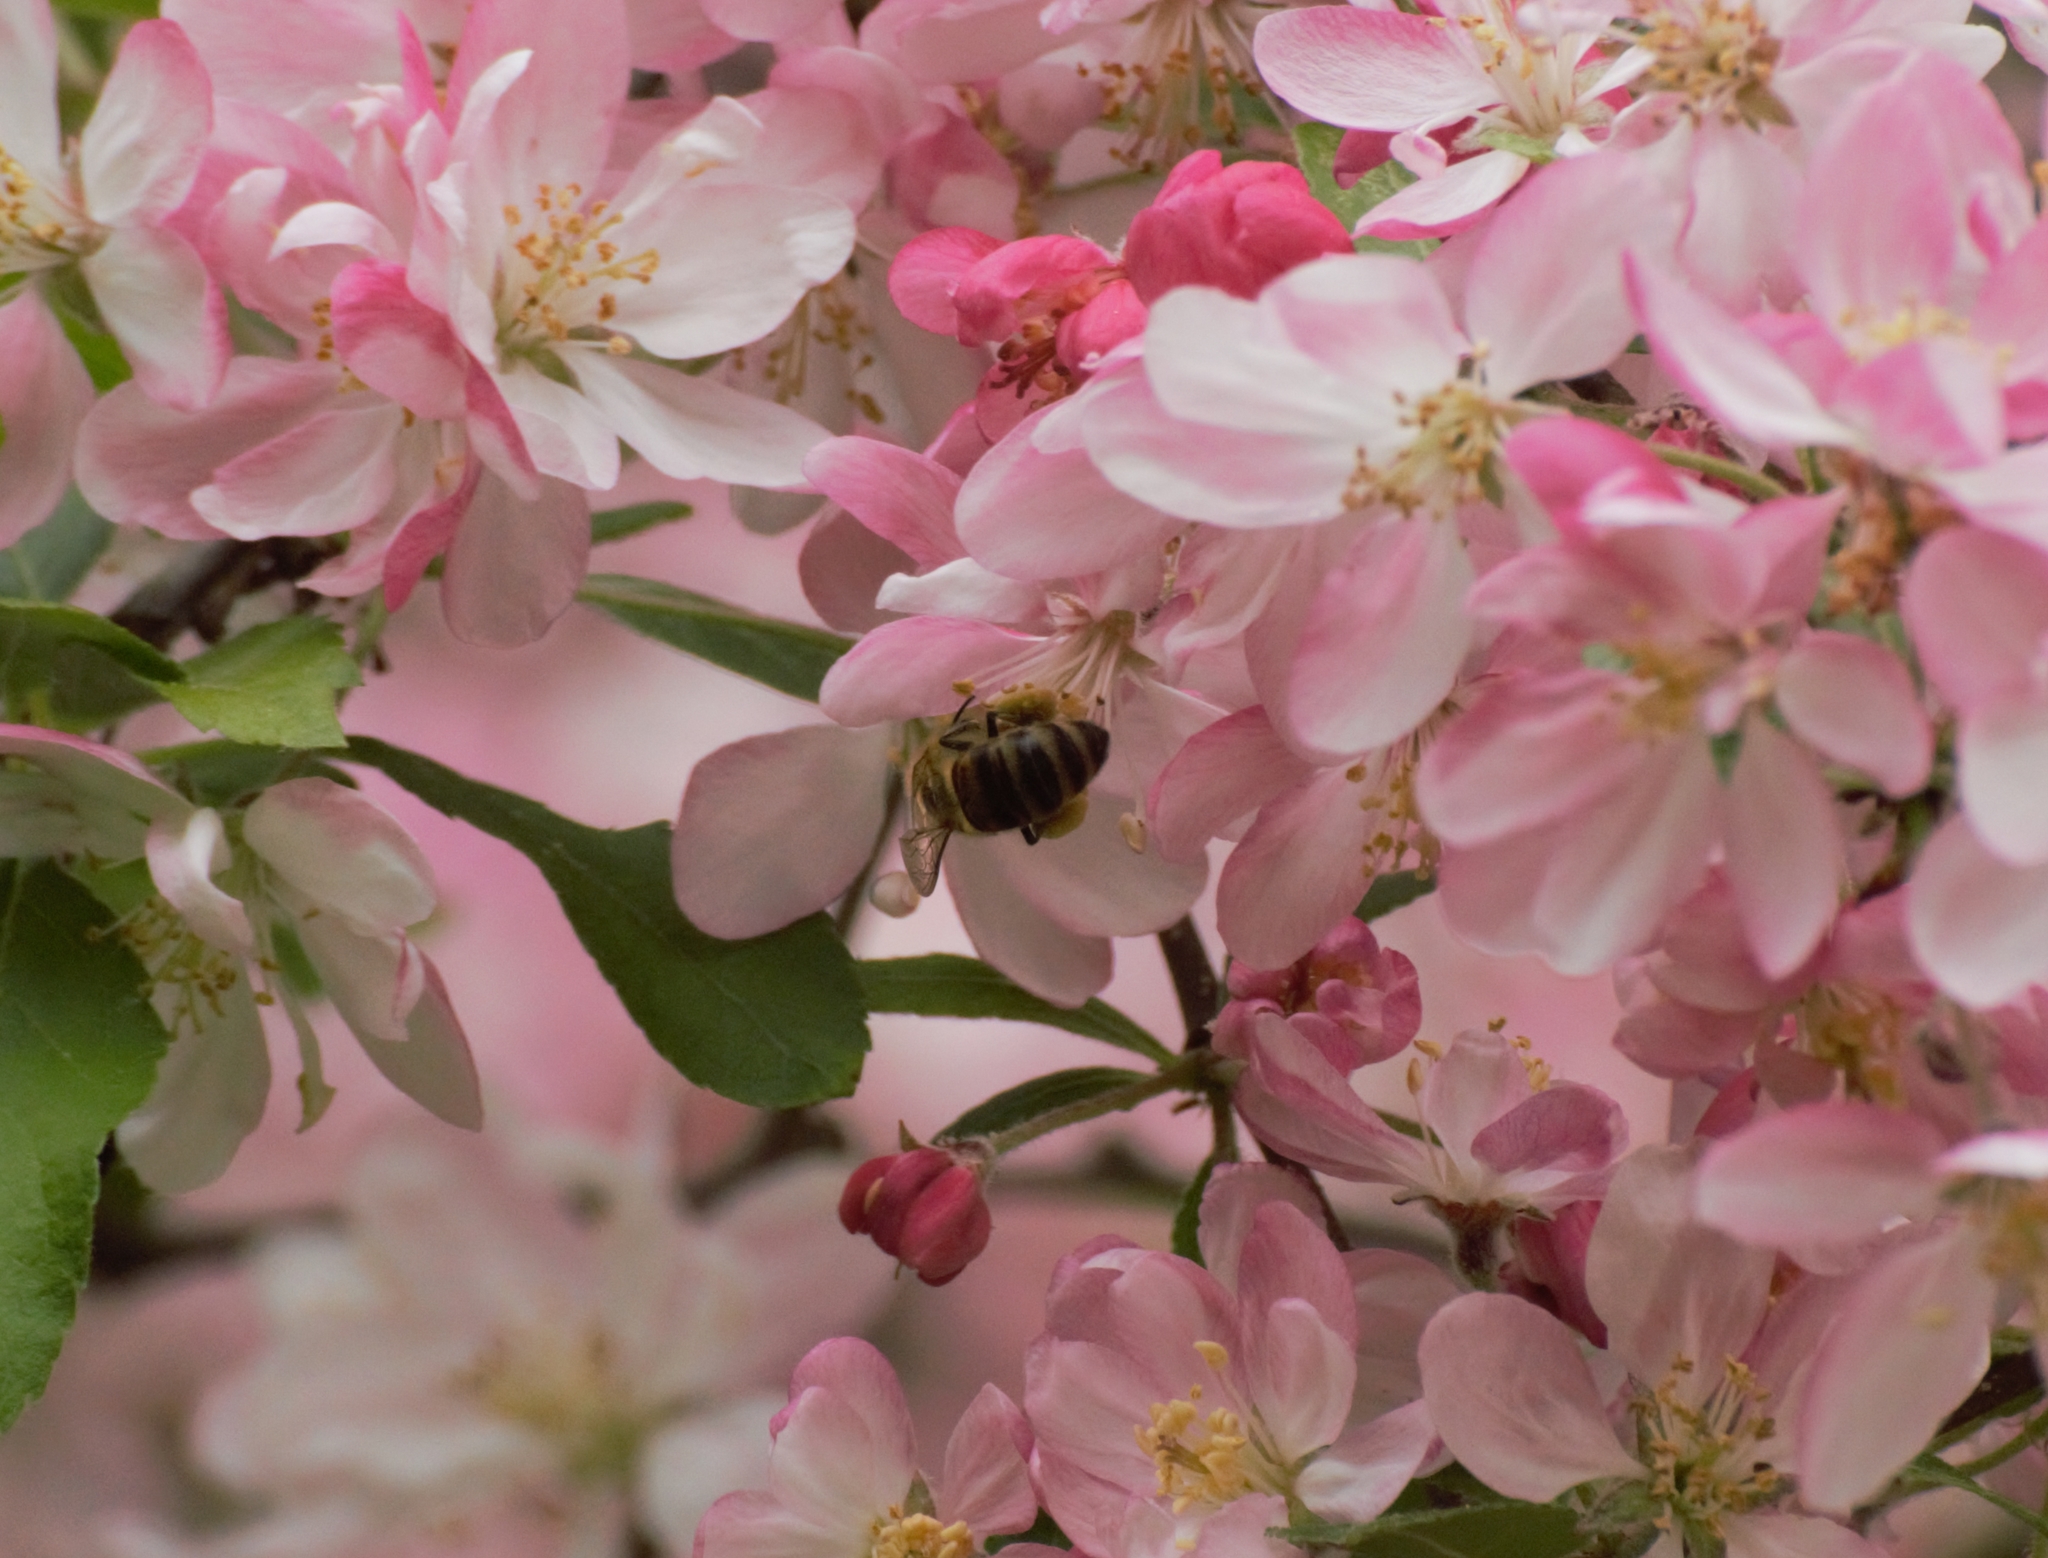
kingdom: Animalia
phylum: Arthropoda
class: Insecta
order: Hymenoptera
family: Apidae
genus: Apis
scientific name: Apis mellifera
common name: Honey bee
